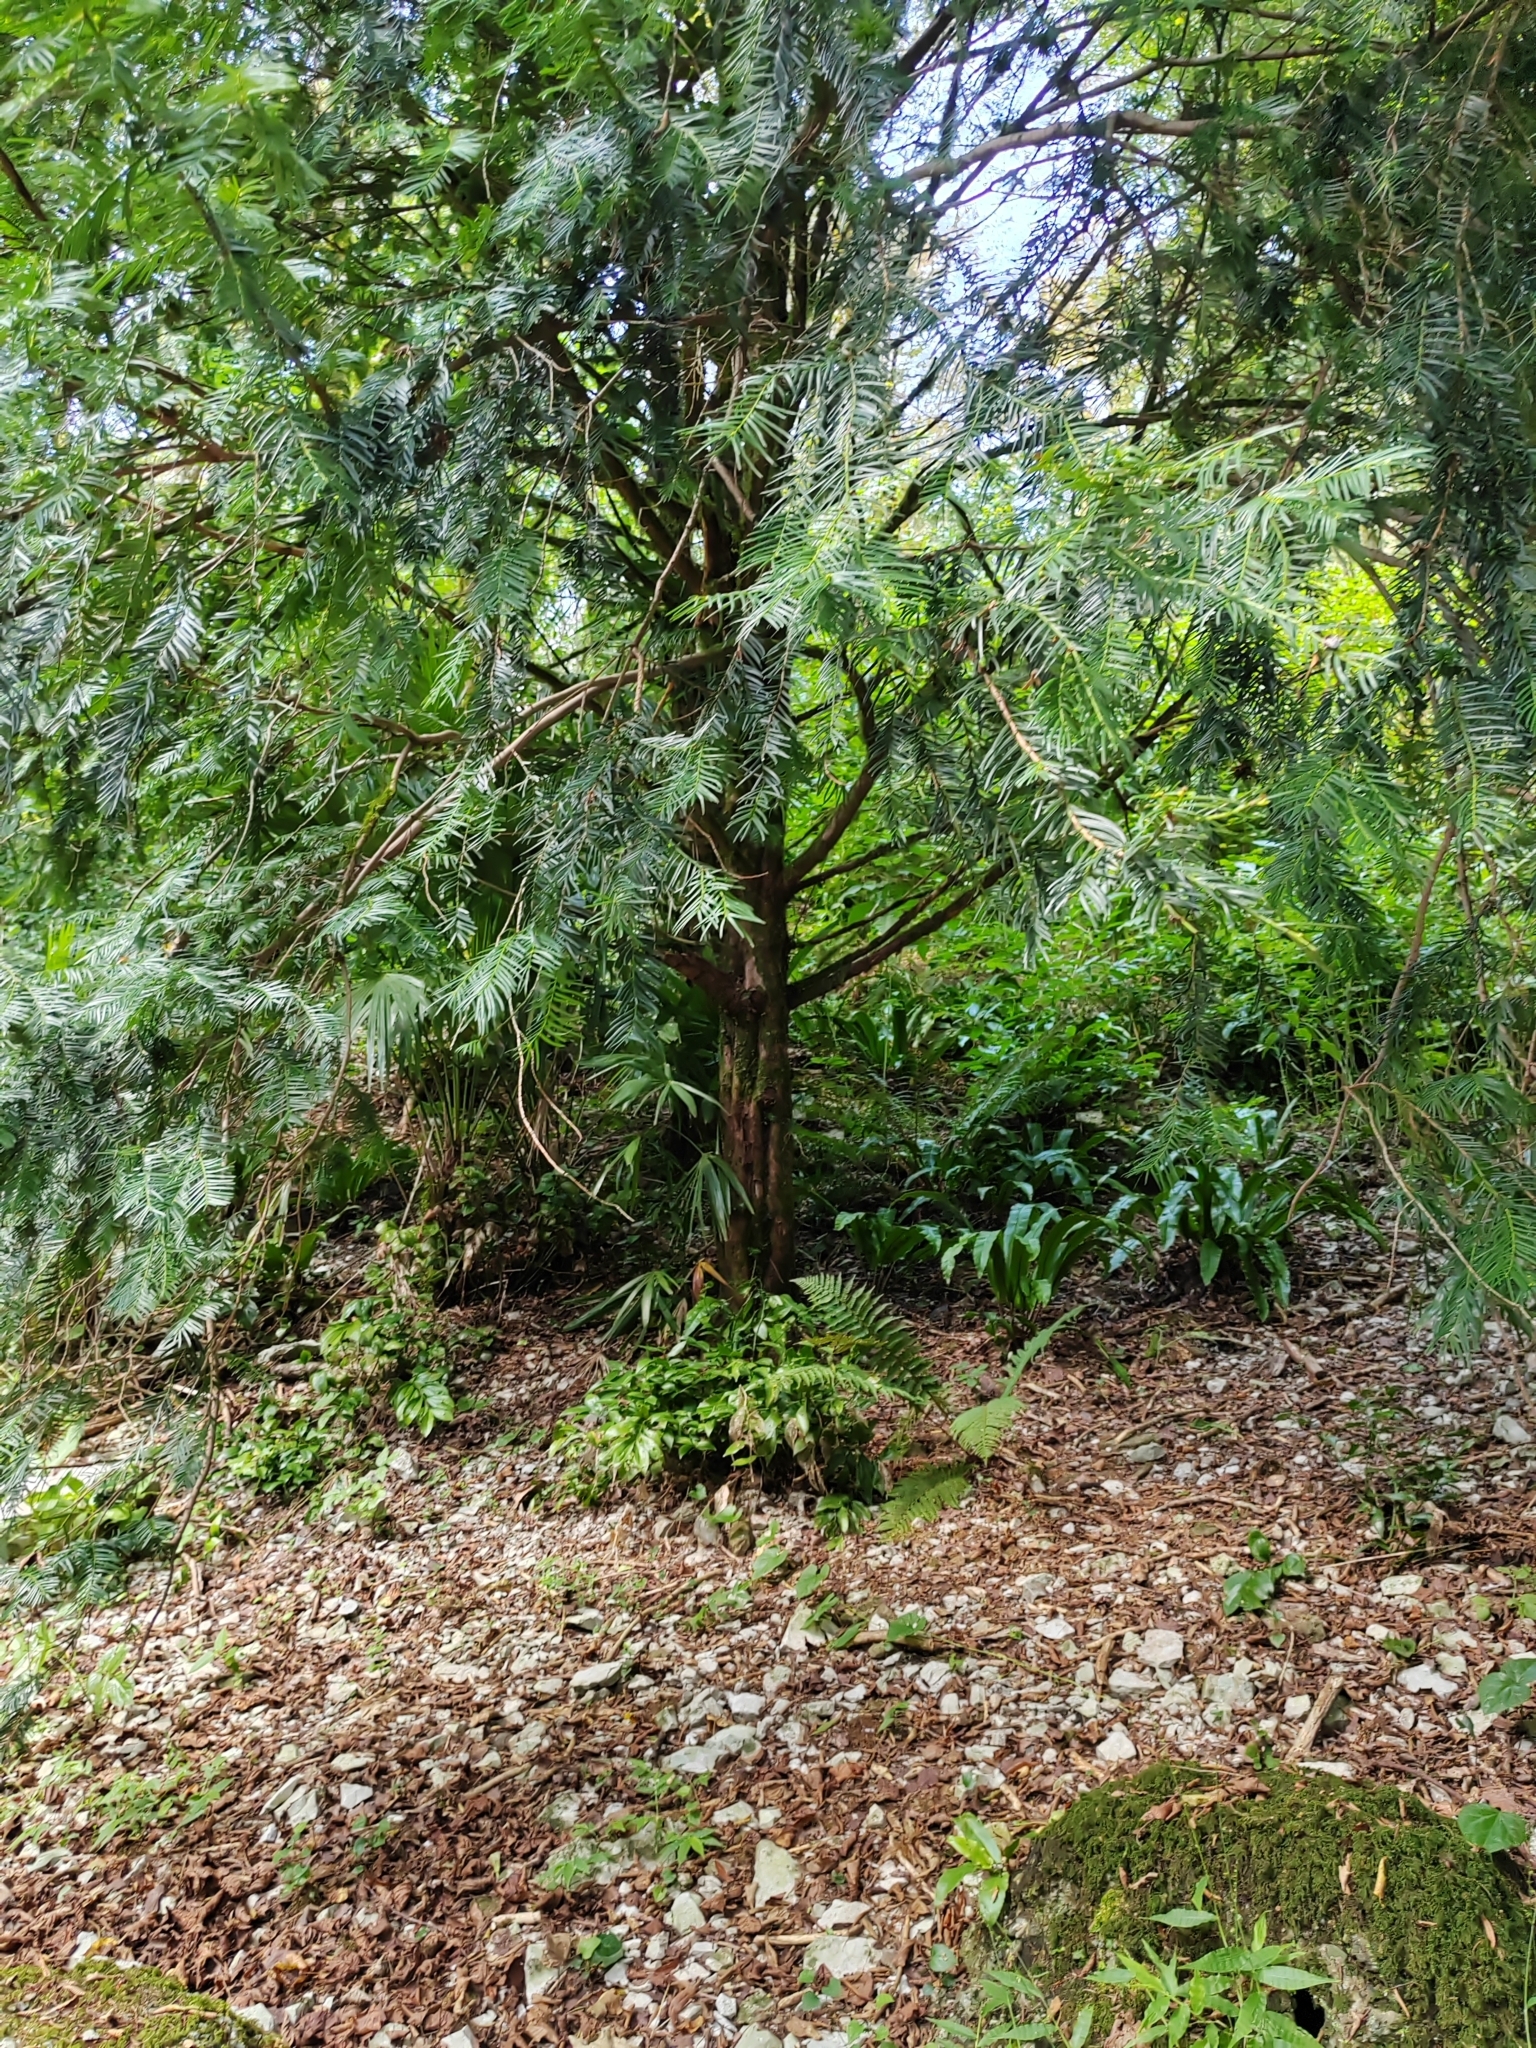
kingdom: Plantae
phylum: Tracheophyta
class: Pinopsida
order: Pinales
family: Taxaceae
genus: Taxus
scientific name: Taxus baccata
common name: Yew
